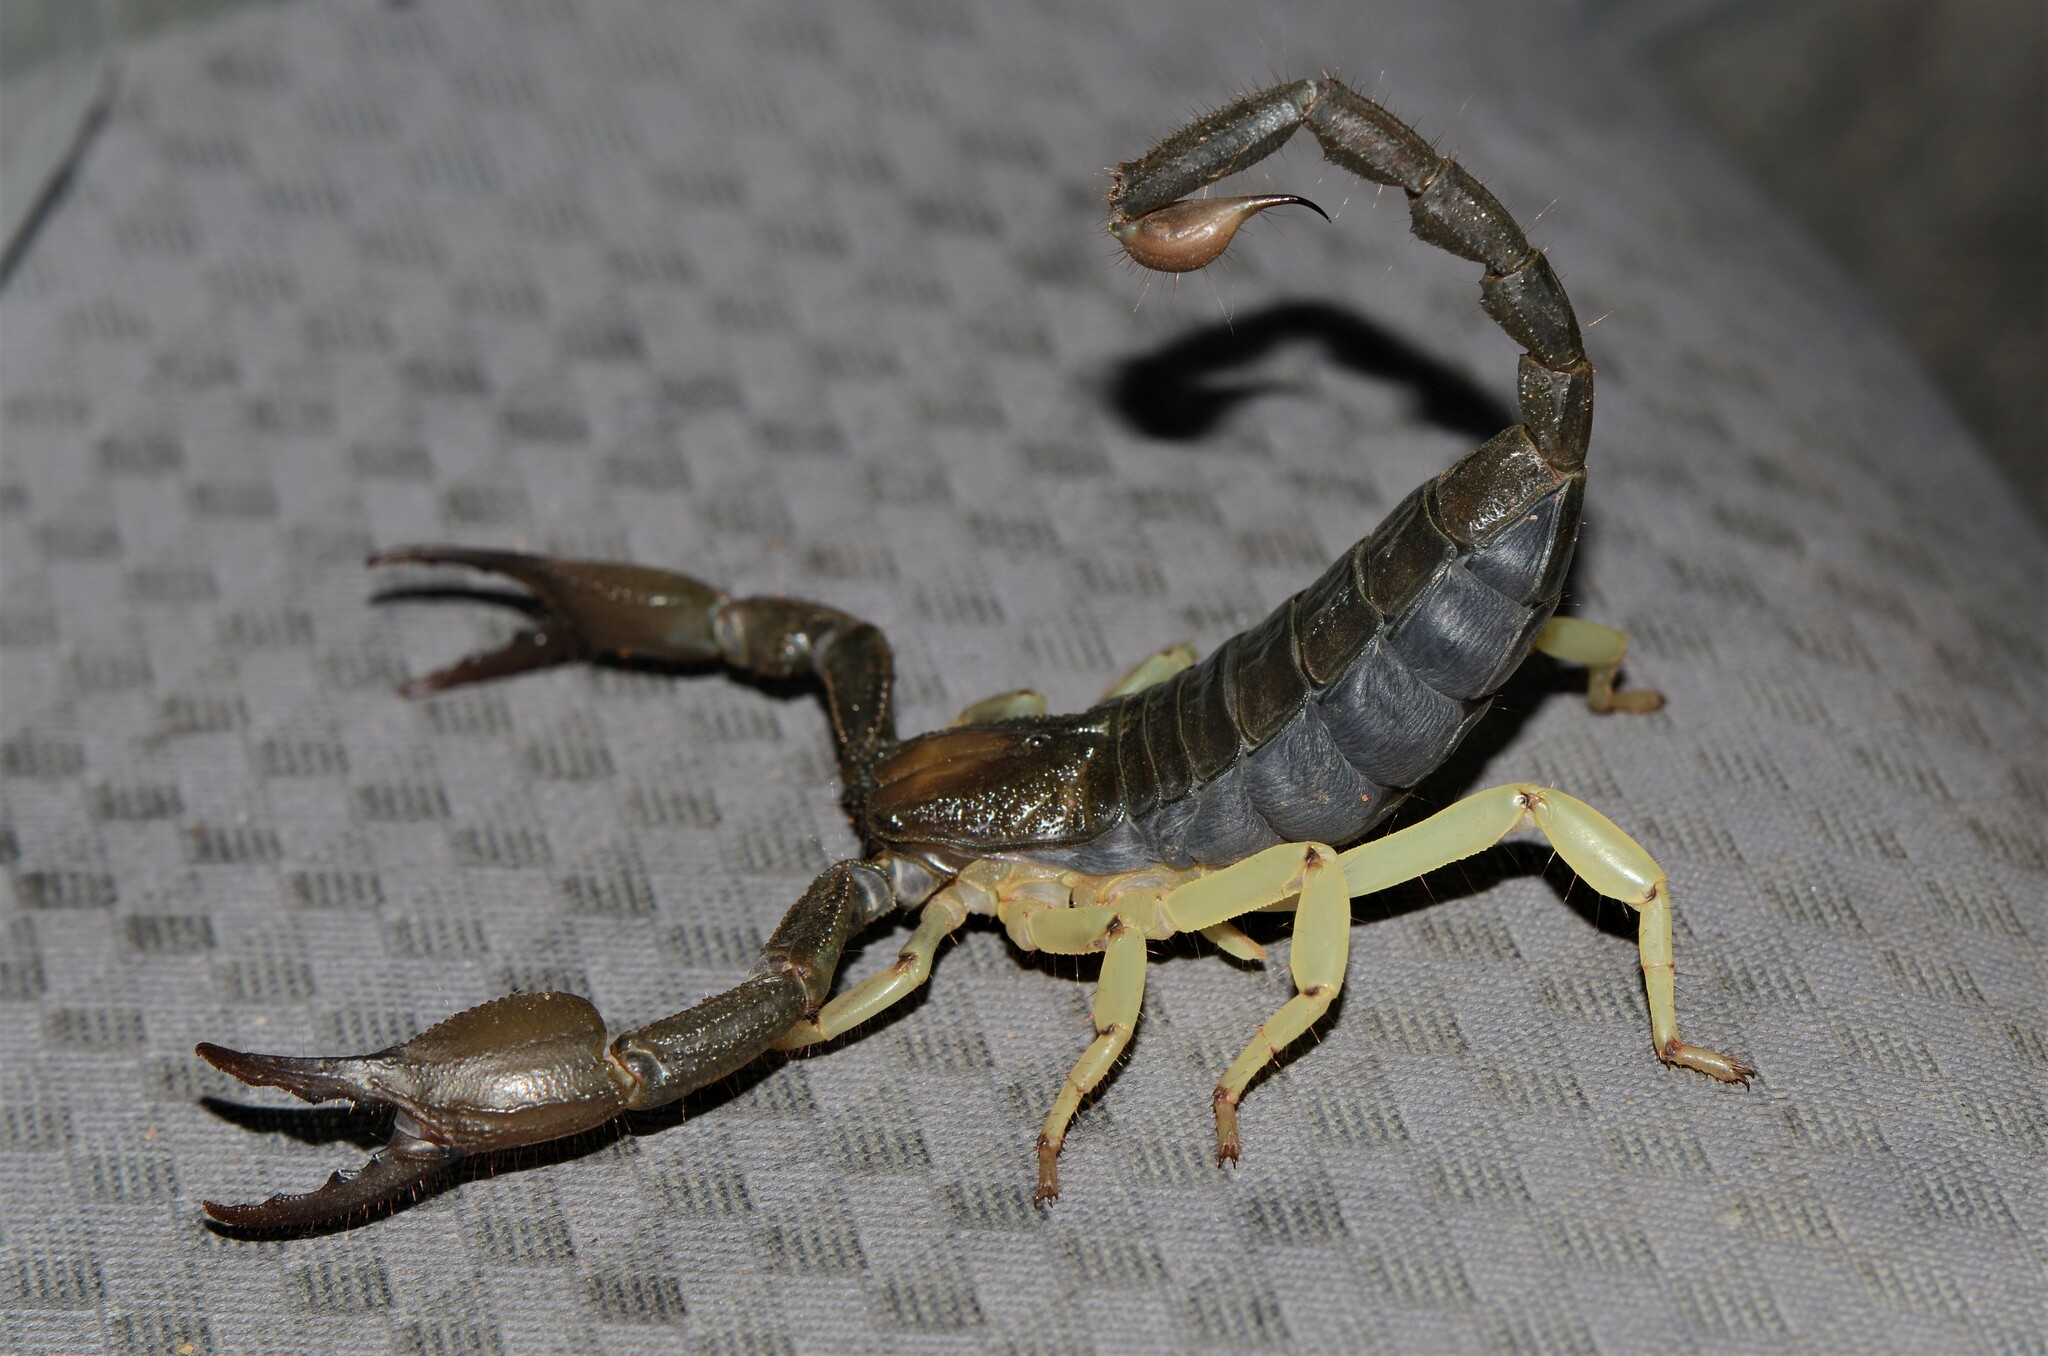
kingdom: Animalia
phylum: Arthropoda
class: Arachnida
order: Scorpiones
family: Scorpionidae
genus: Opistophthalmus
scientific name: Opistophthalmus gigas
